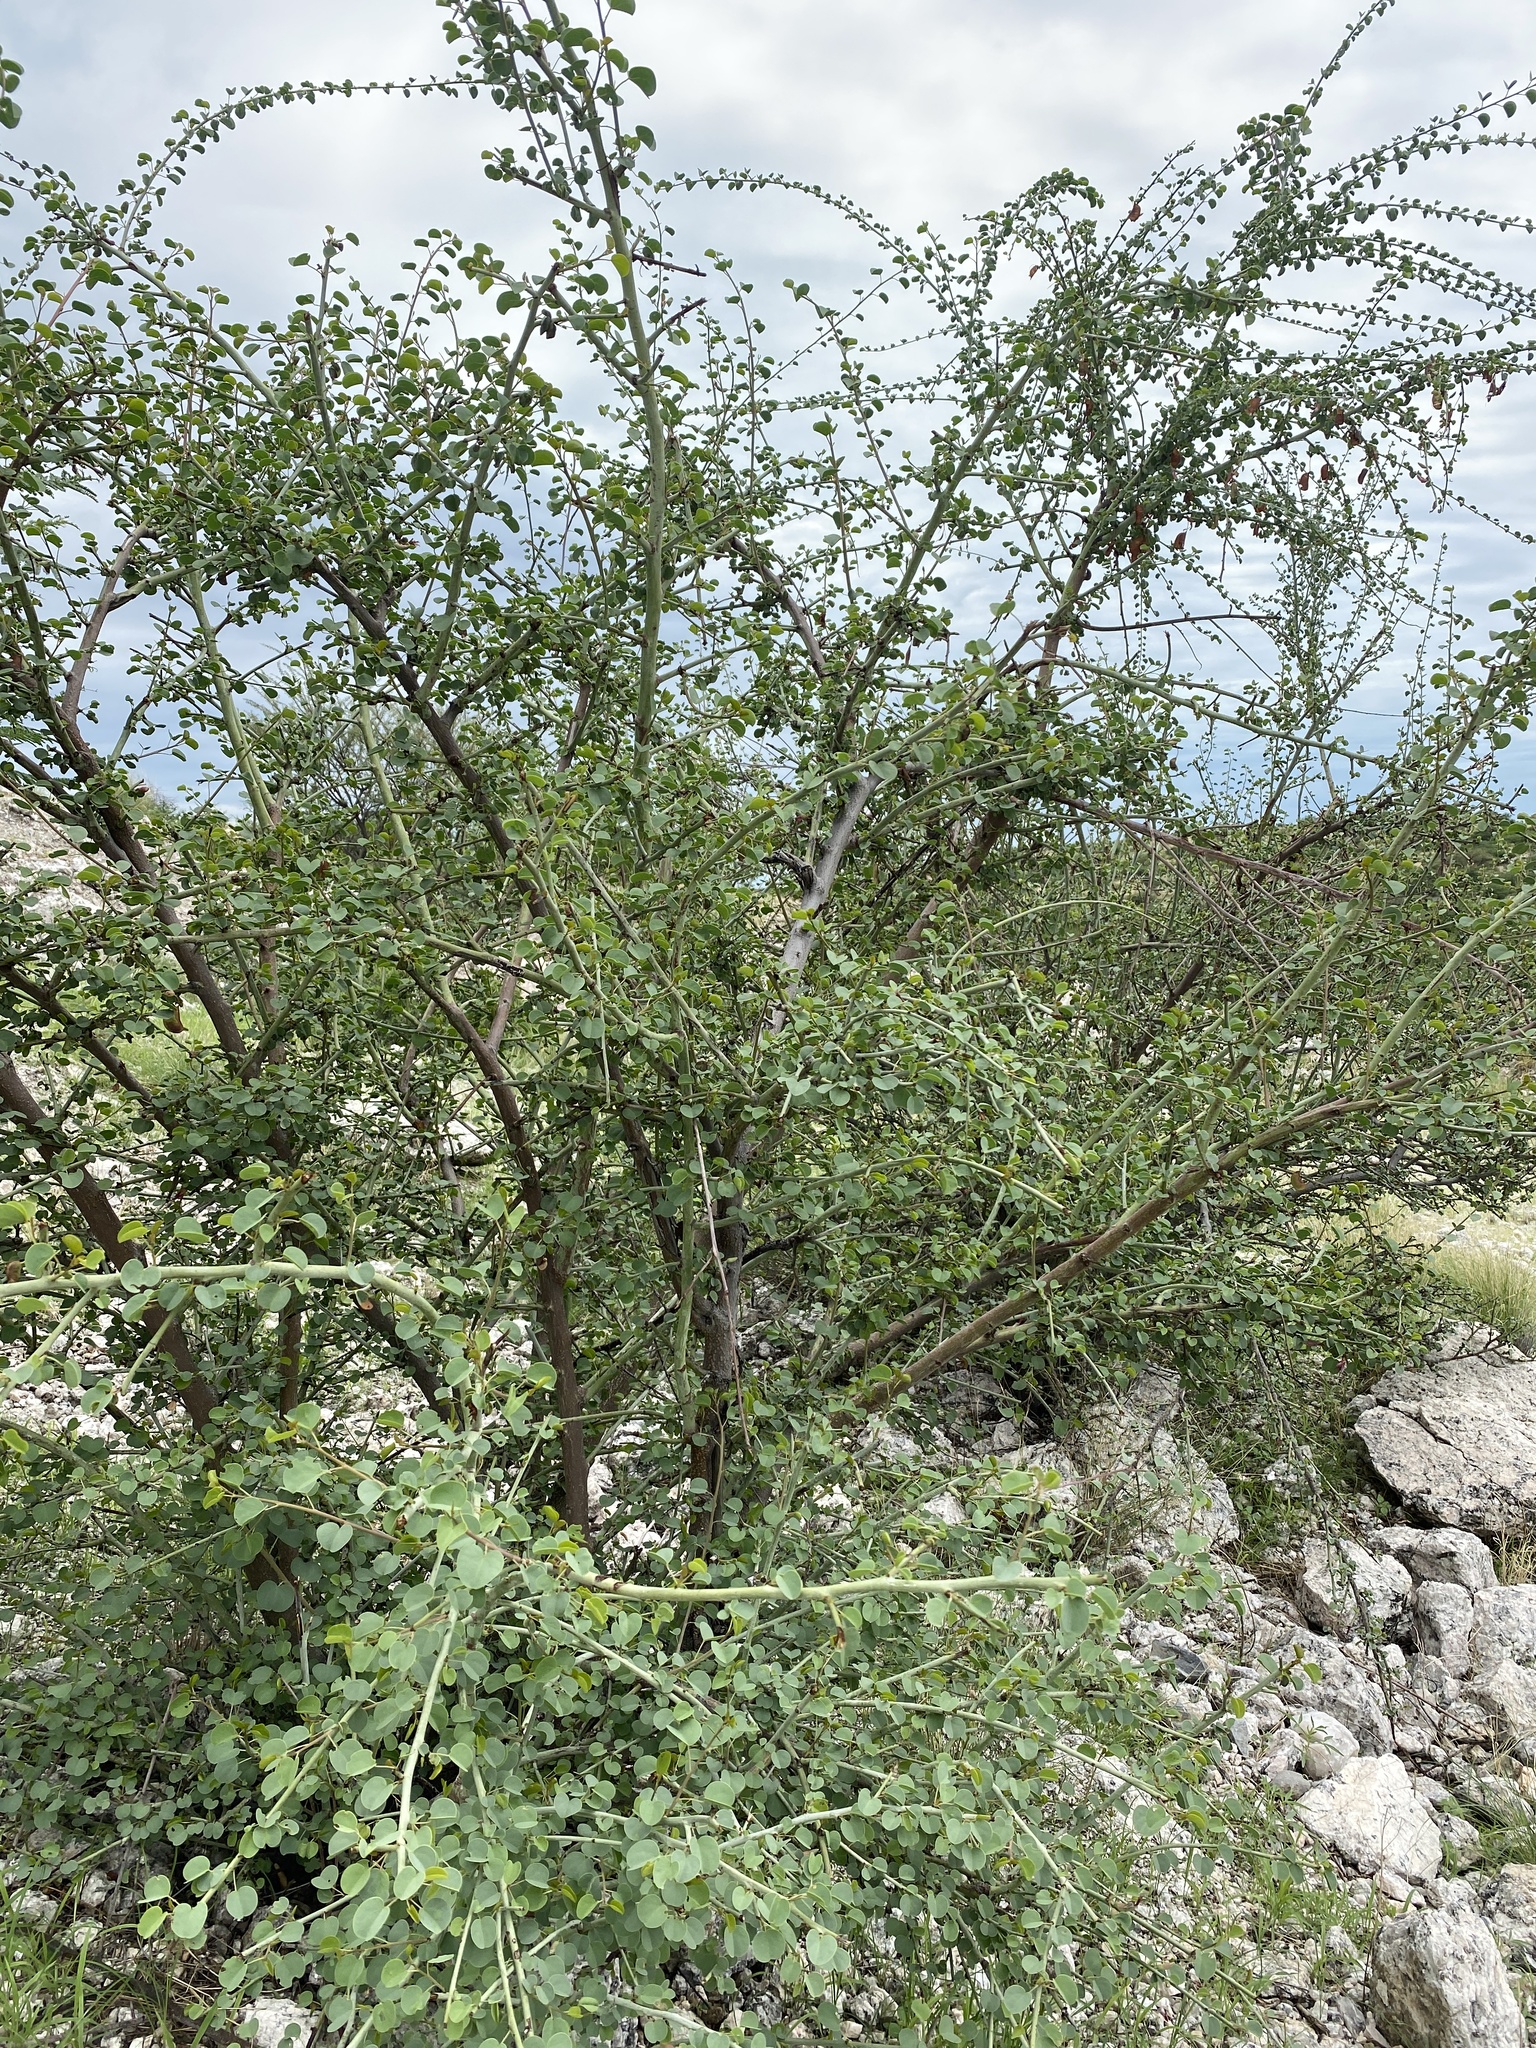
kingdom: Plantae
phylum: Tracheophyta
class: Magnoliopsida
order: Fabales
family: Fabaceae
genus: Adenolobus
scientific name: Adenolobus garipensis
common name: Butterfly-leaf
